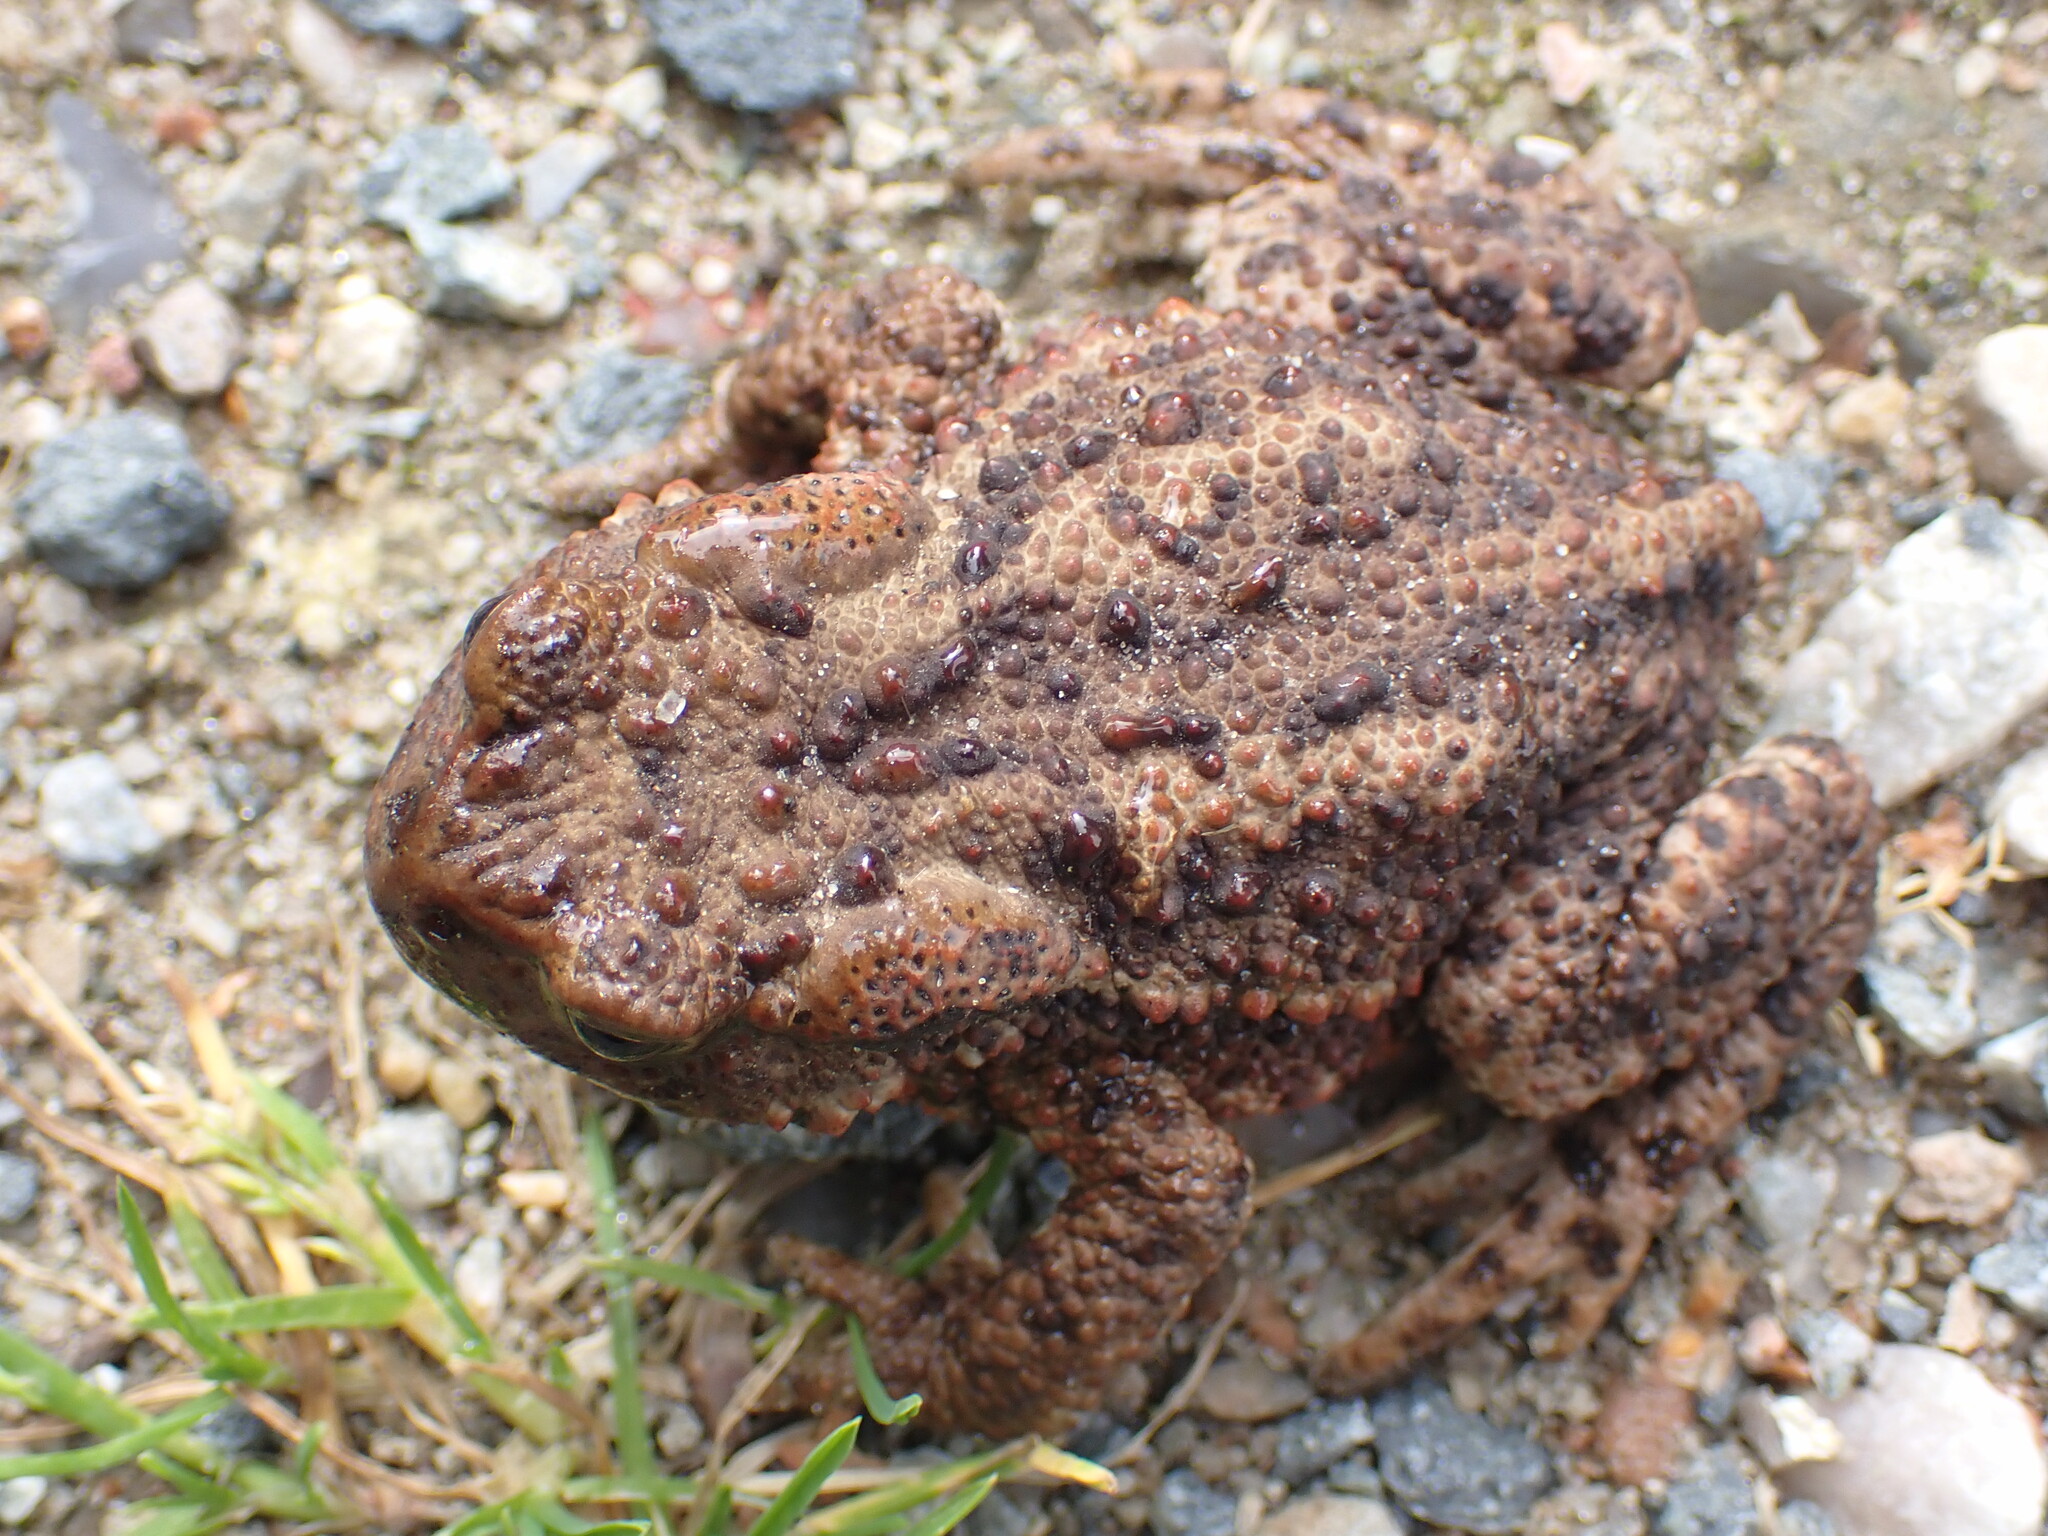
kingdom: Animalia
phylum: Chordata
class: Amphibia
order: Anura
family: Bufonidae
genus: Bufo
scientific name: Bufo bufo
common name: Common toad
